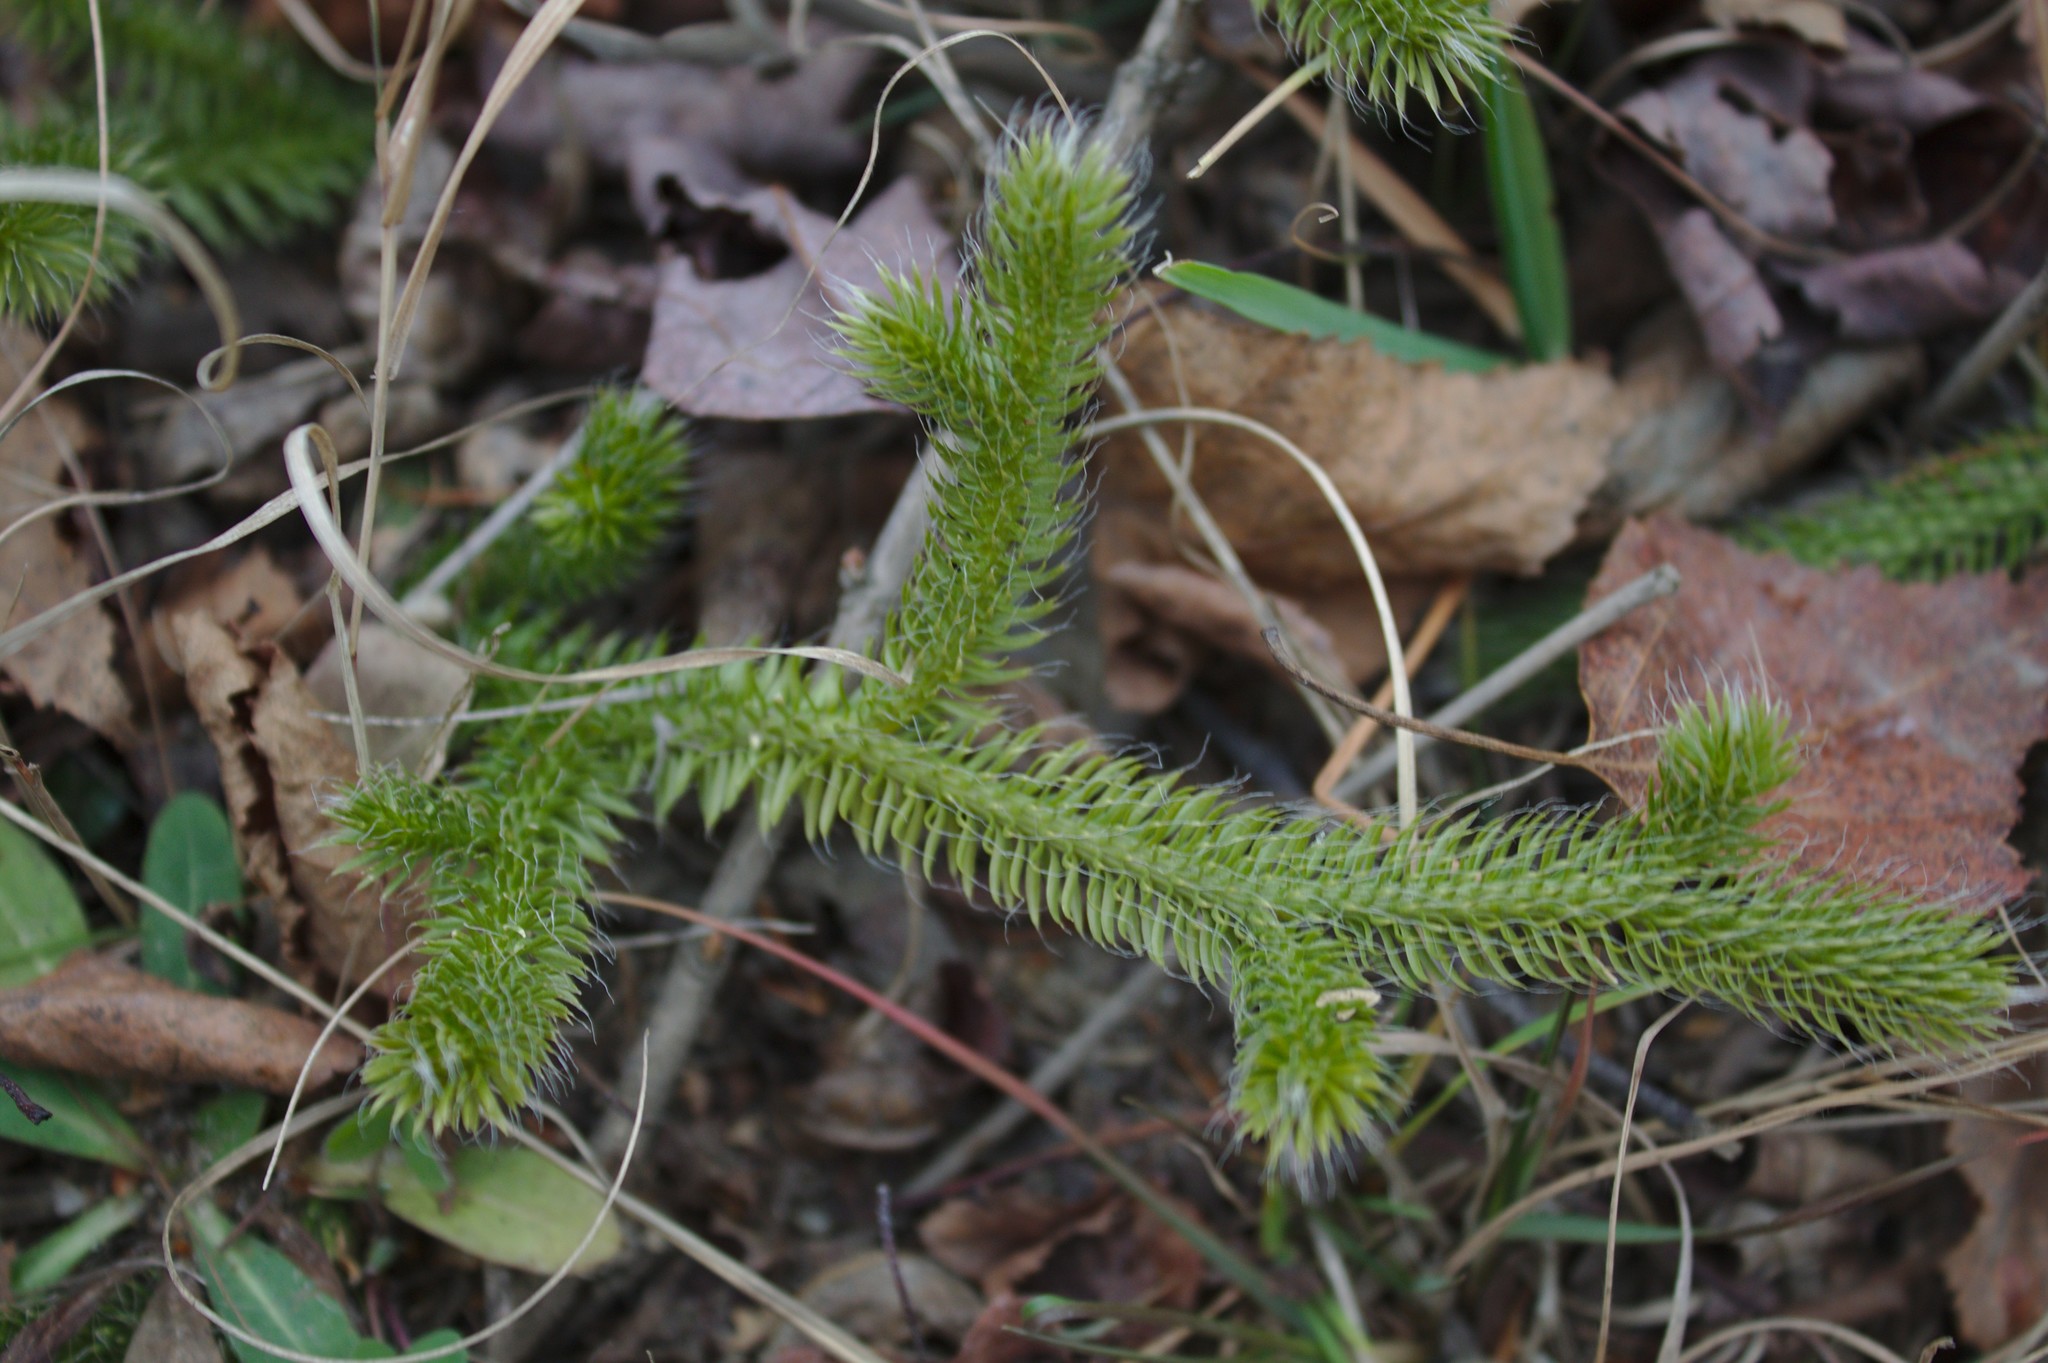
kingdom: Plantae
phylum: Tracheophyta
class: Lycopodiopsida
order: Lycopodiales
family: Lycopodiaceae
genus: Lycopodium
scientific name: Lycopodium clavatum
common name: Stag's-horn clubmoss
